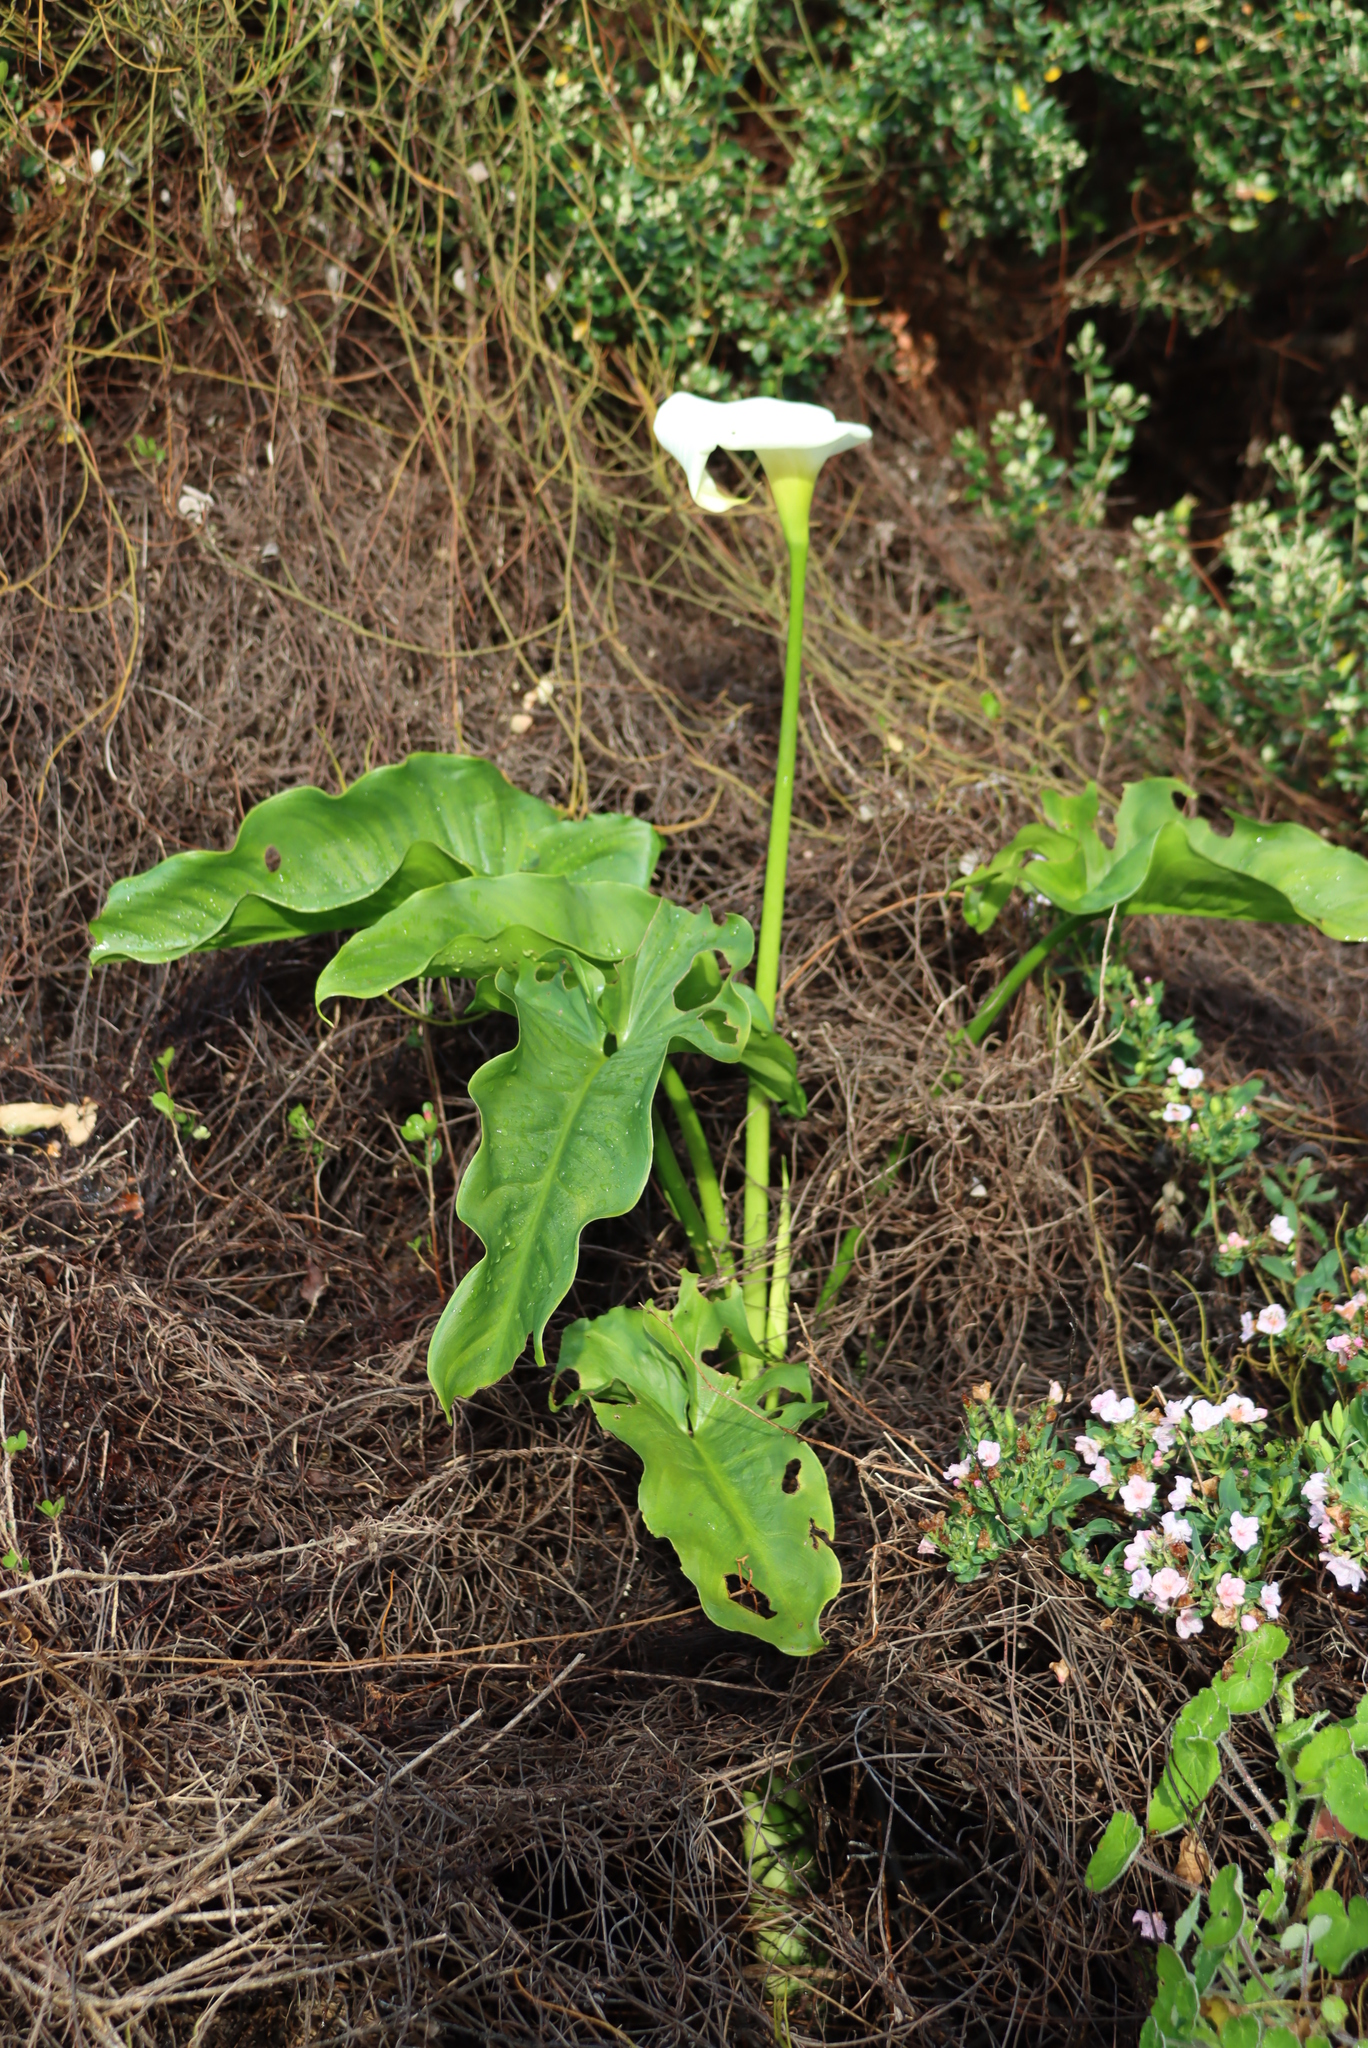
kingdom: Plantae
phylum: Tracheophyta
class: Liliopsida
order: Alismatales
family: Araceae
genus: Zantedeschia
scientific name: Zantedeschia aethiopica
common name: Altar-lily
